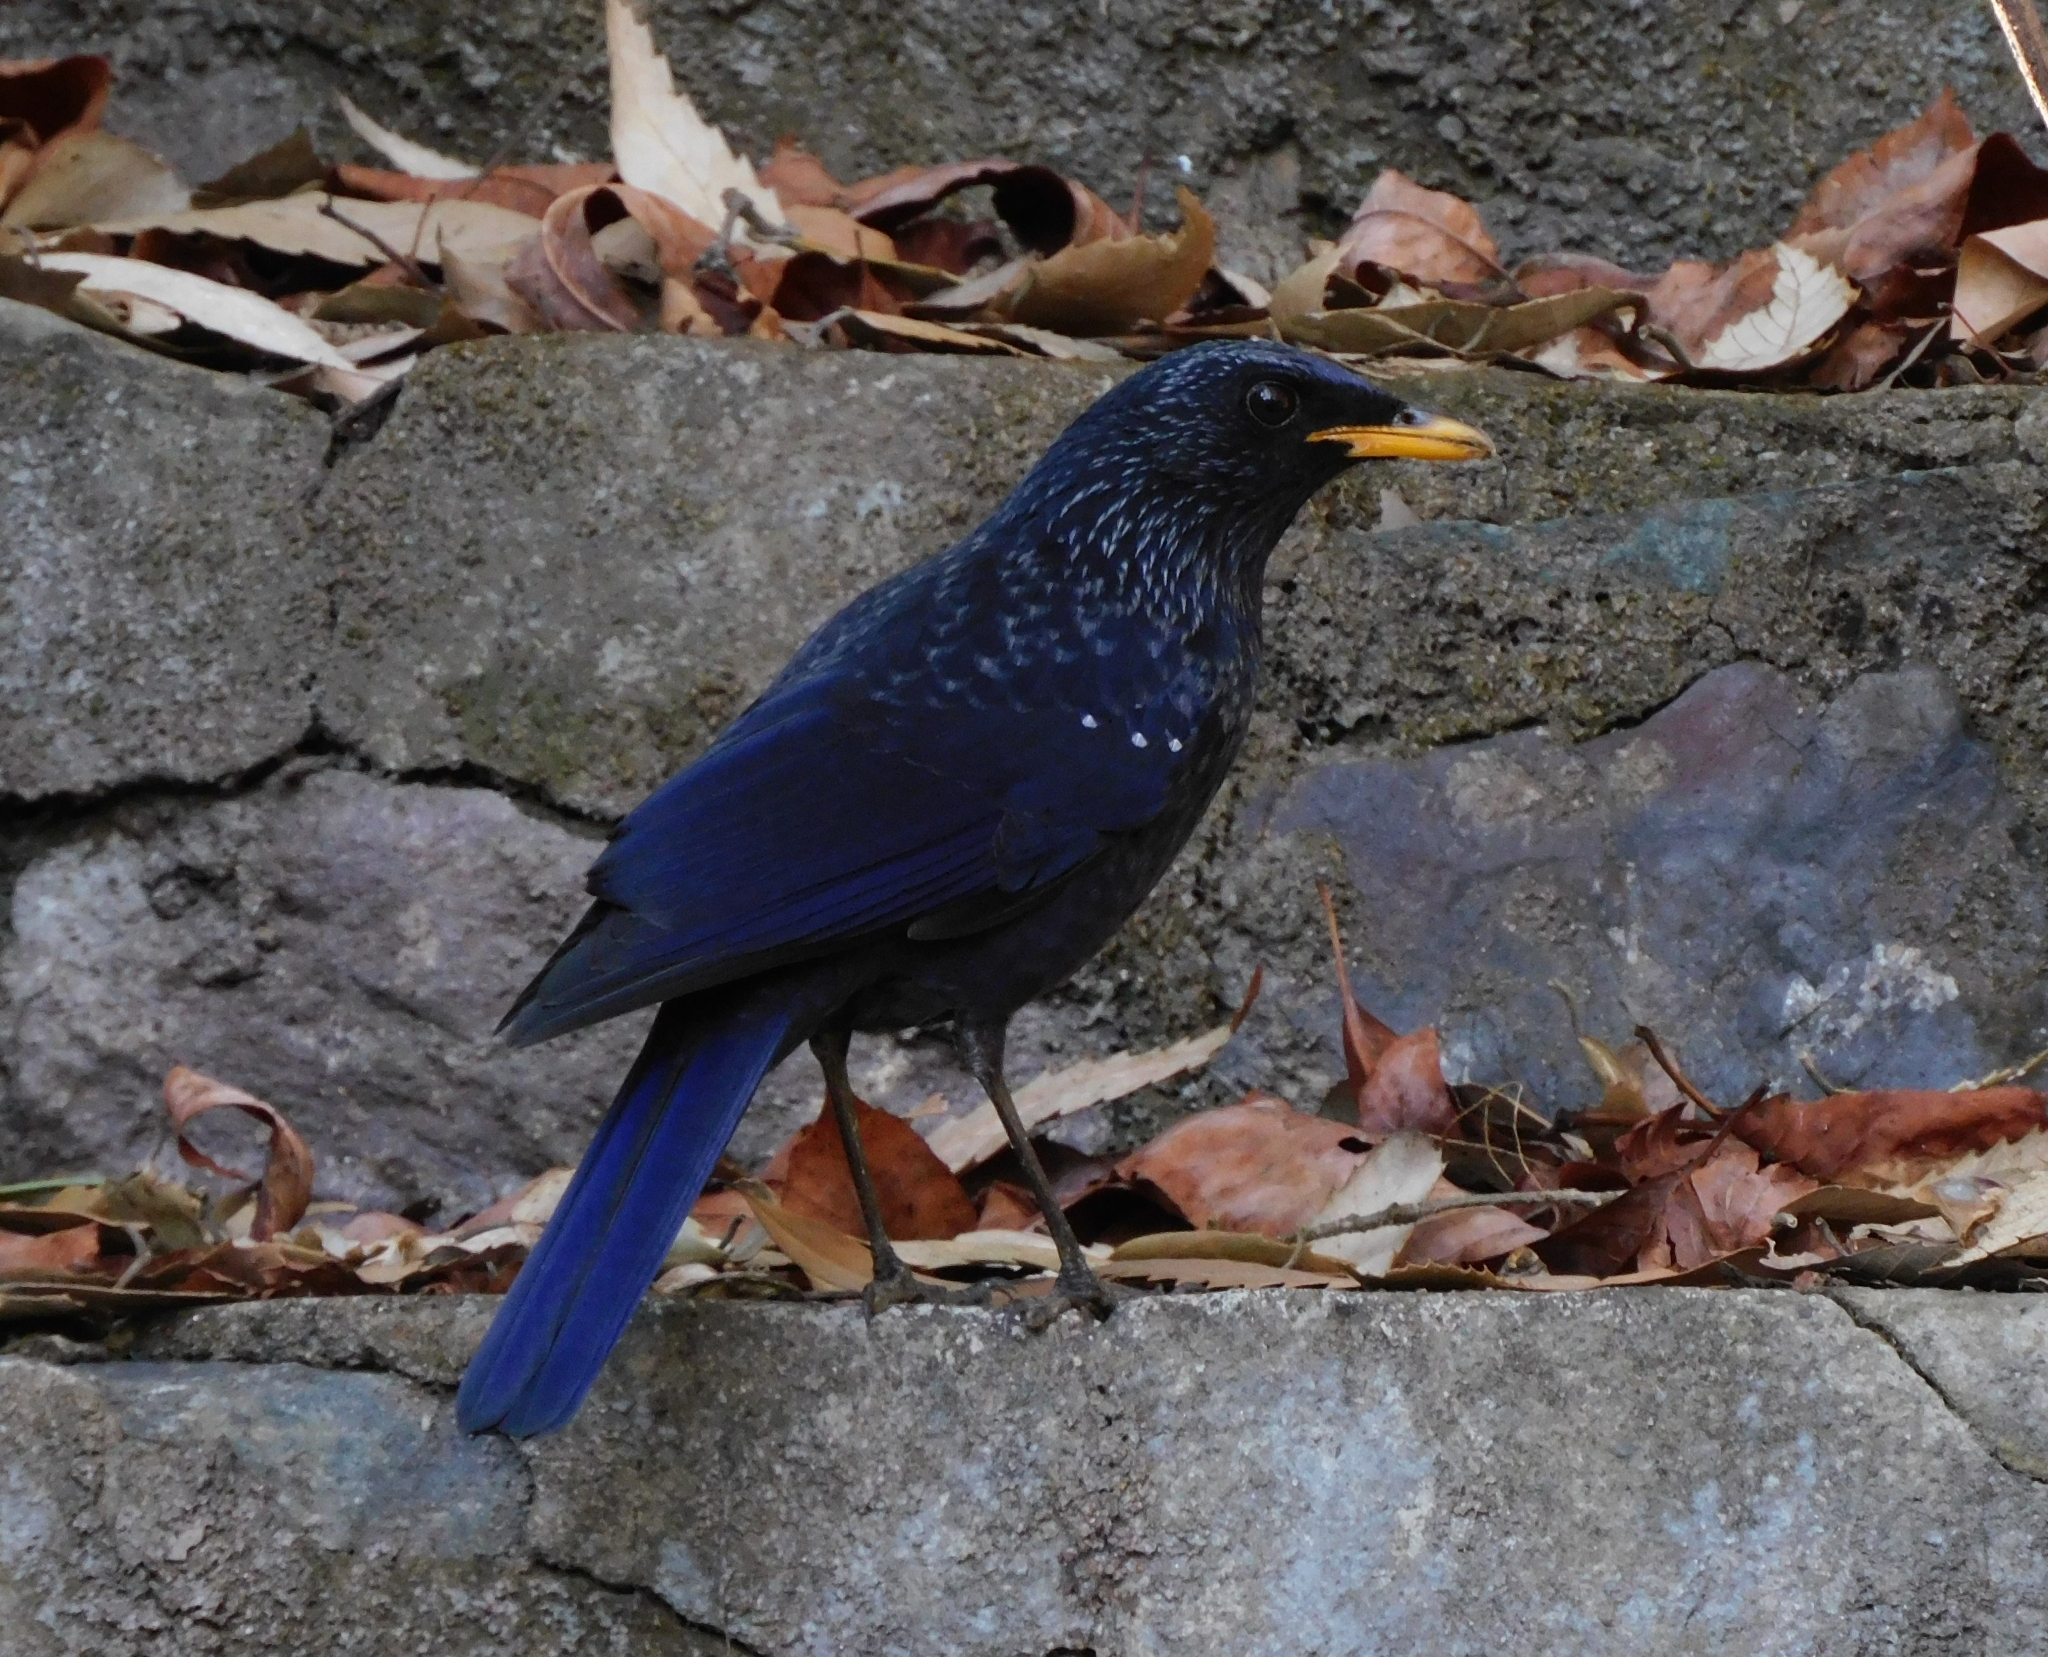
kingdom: Animalia
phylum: Chordata
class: Aves
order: Passeriformes
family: Muscicapidae
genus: Myophonus
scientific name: Myophonus caeruleus
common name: Blue whistling-thrush
